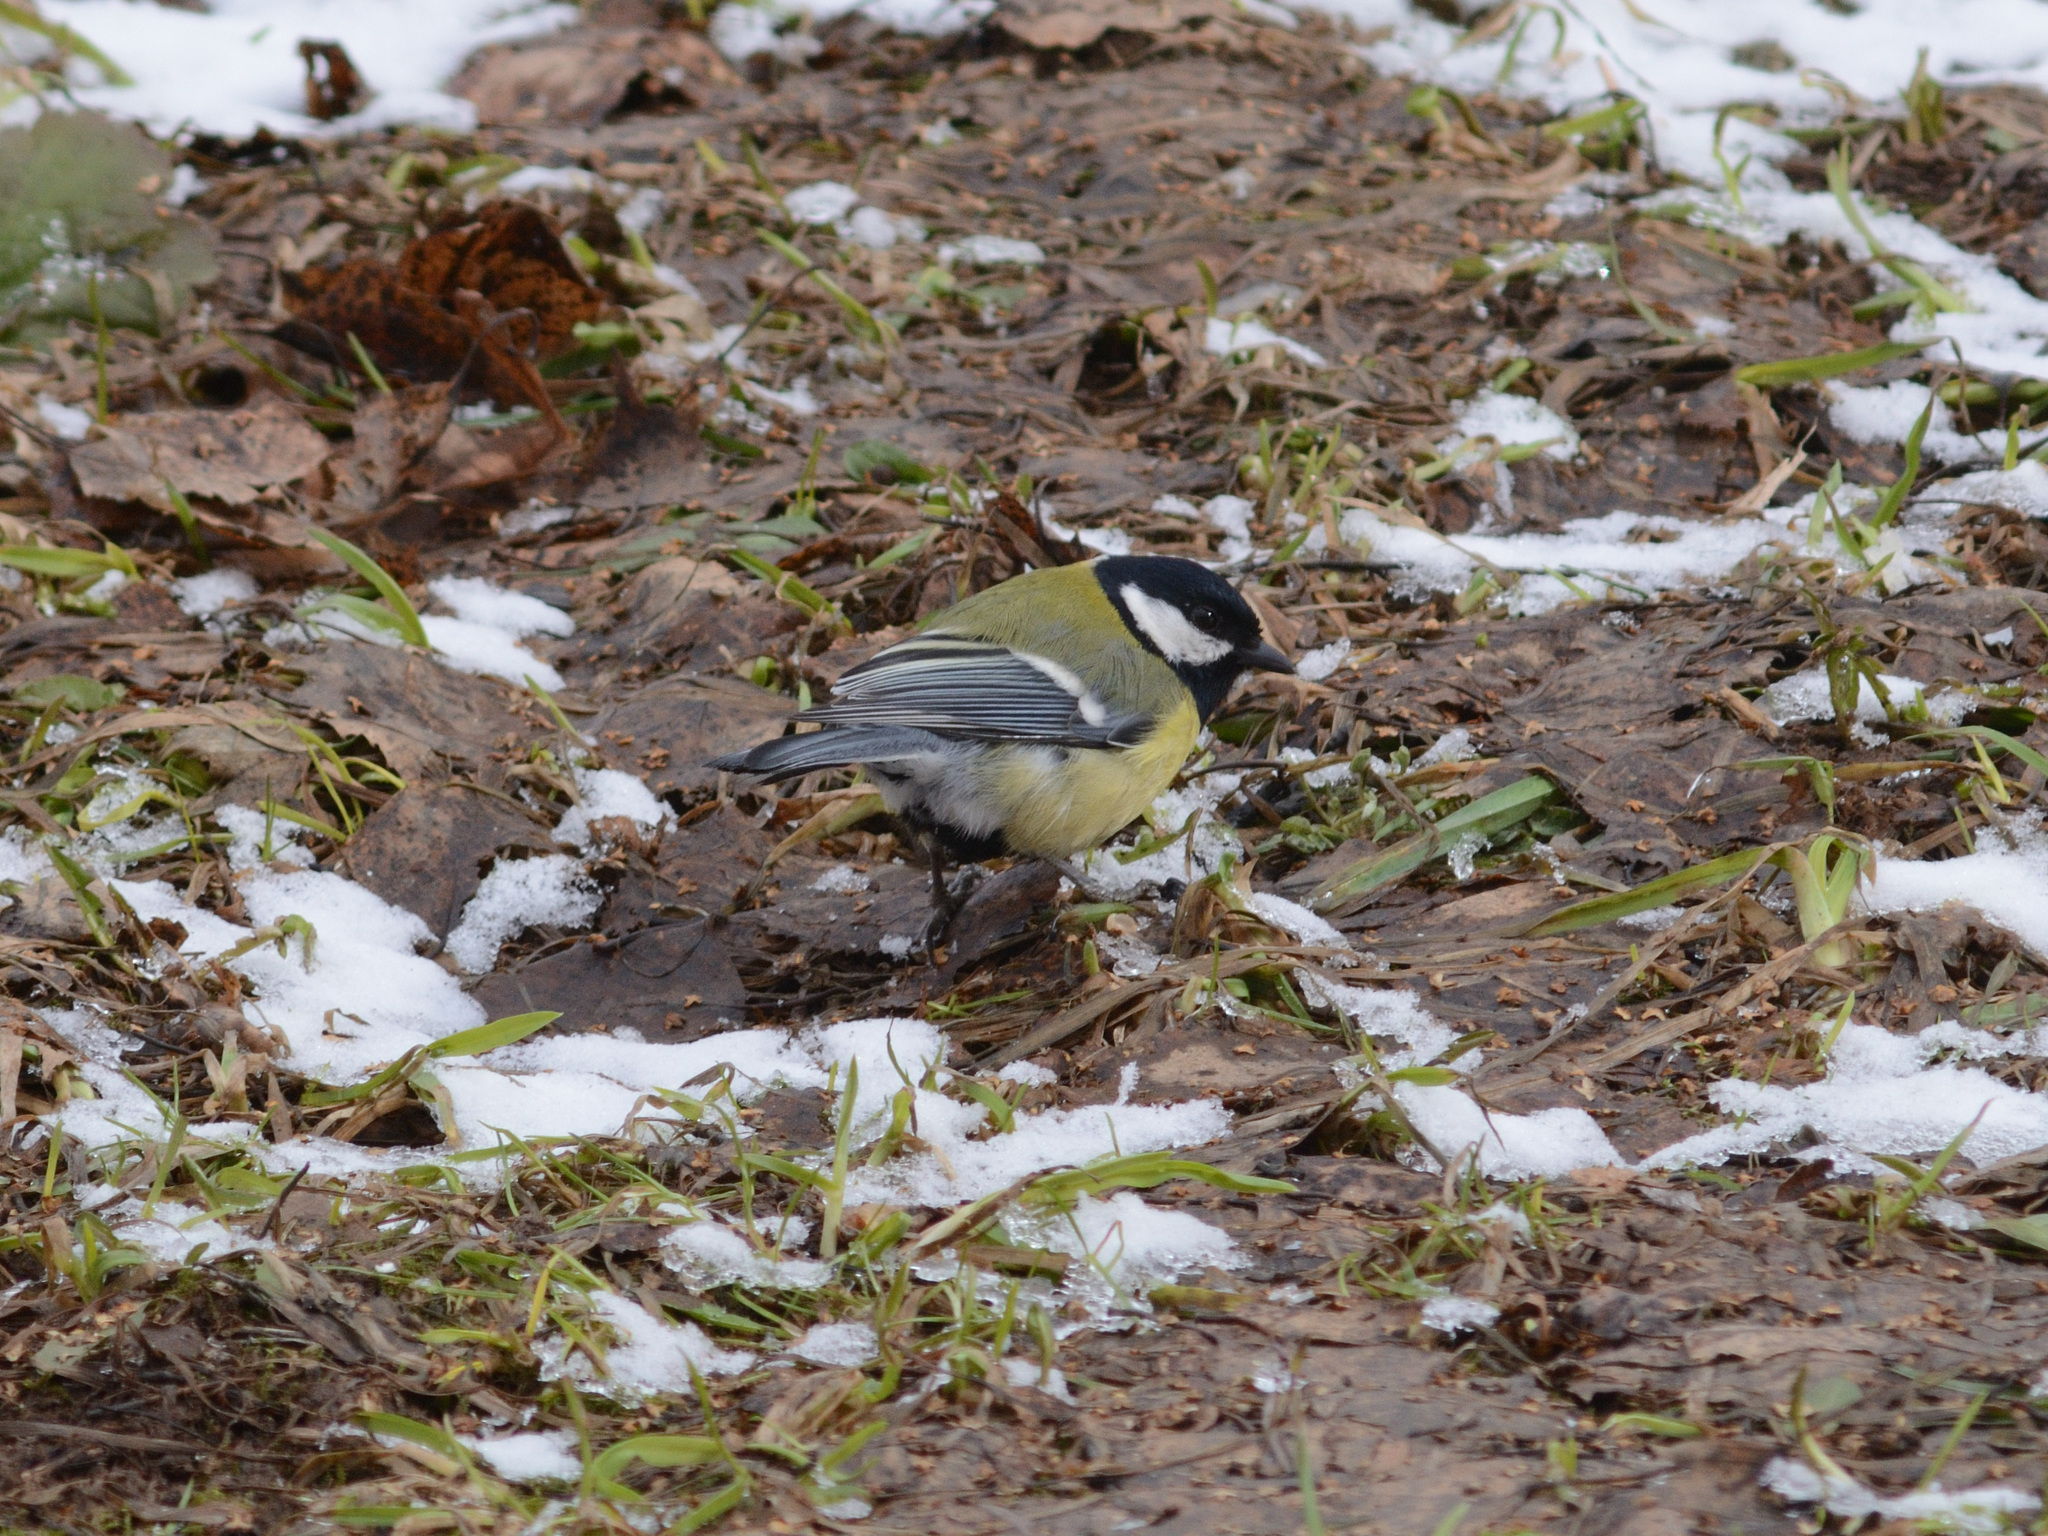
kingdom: Animalia
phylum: Chordata
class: Aves
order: Passeriformes
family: Paridae
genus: Parus
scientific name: Parus major
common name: Great tit
